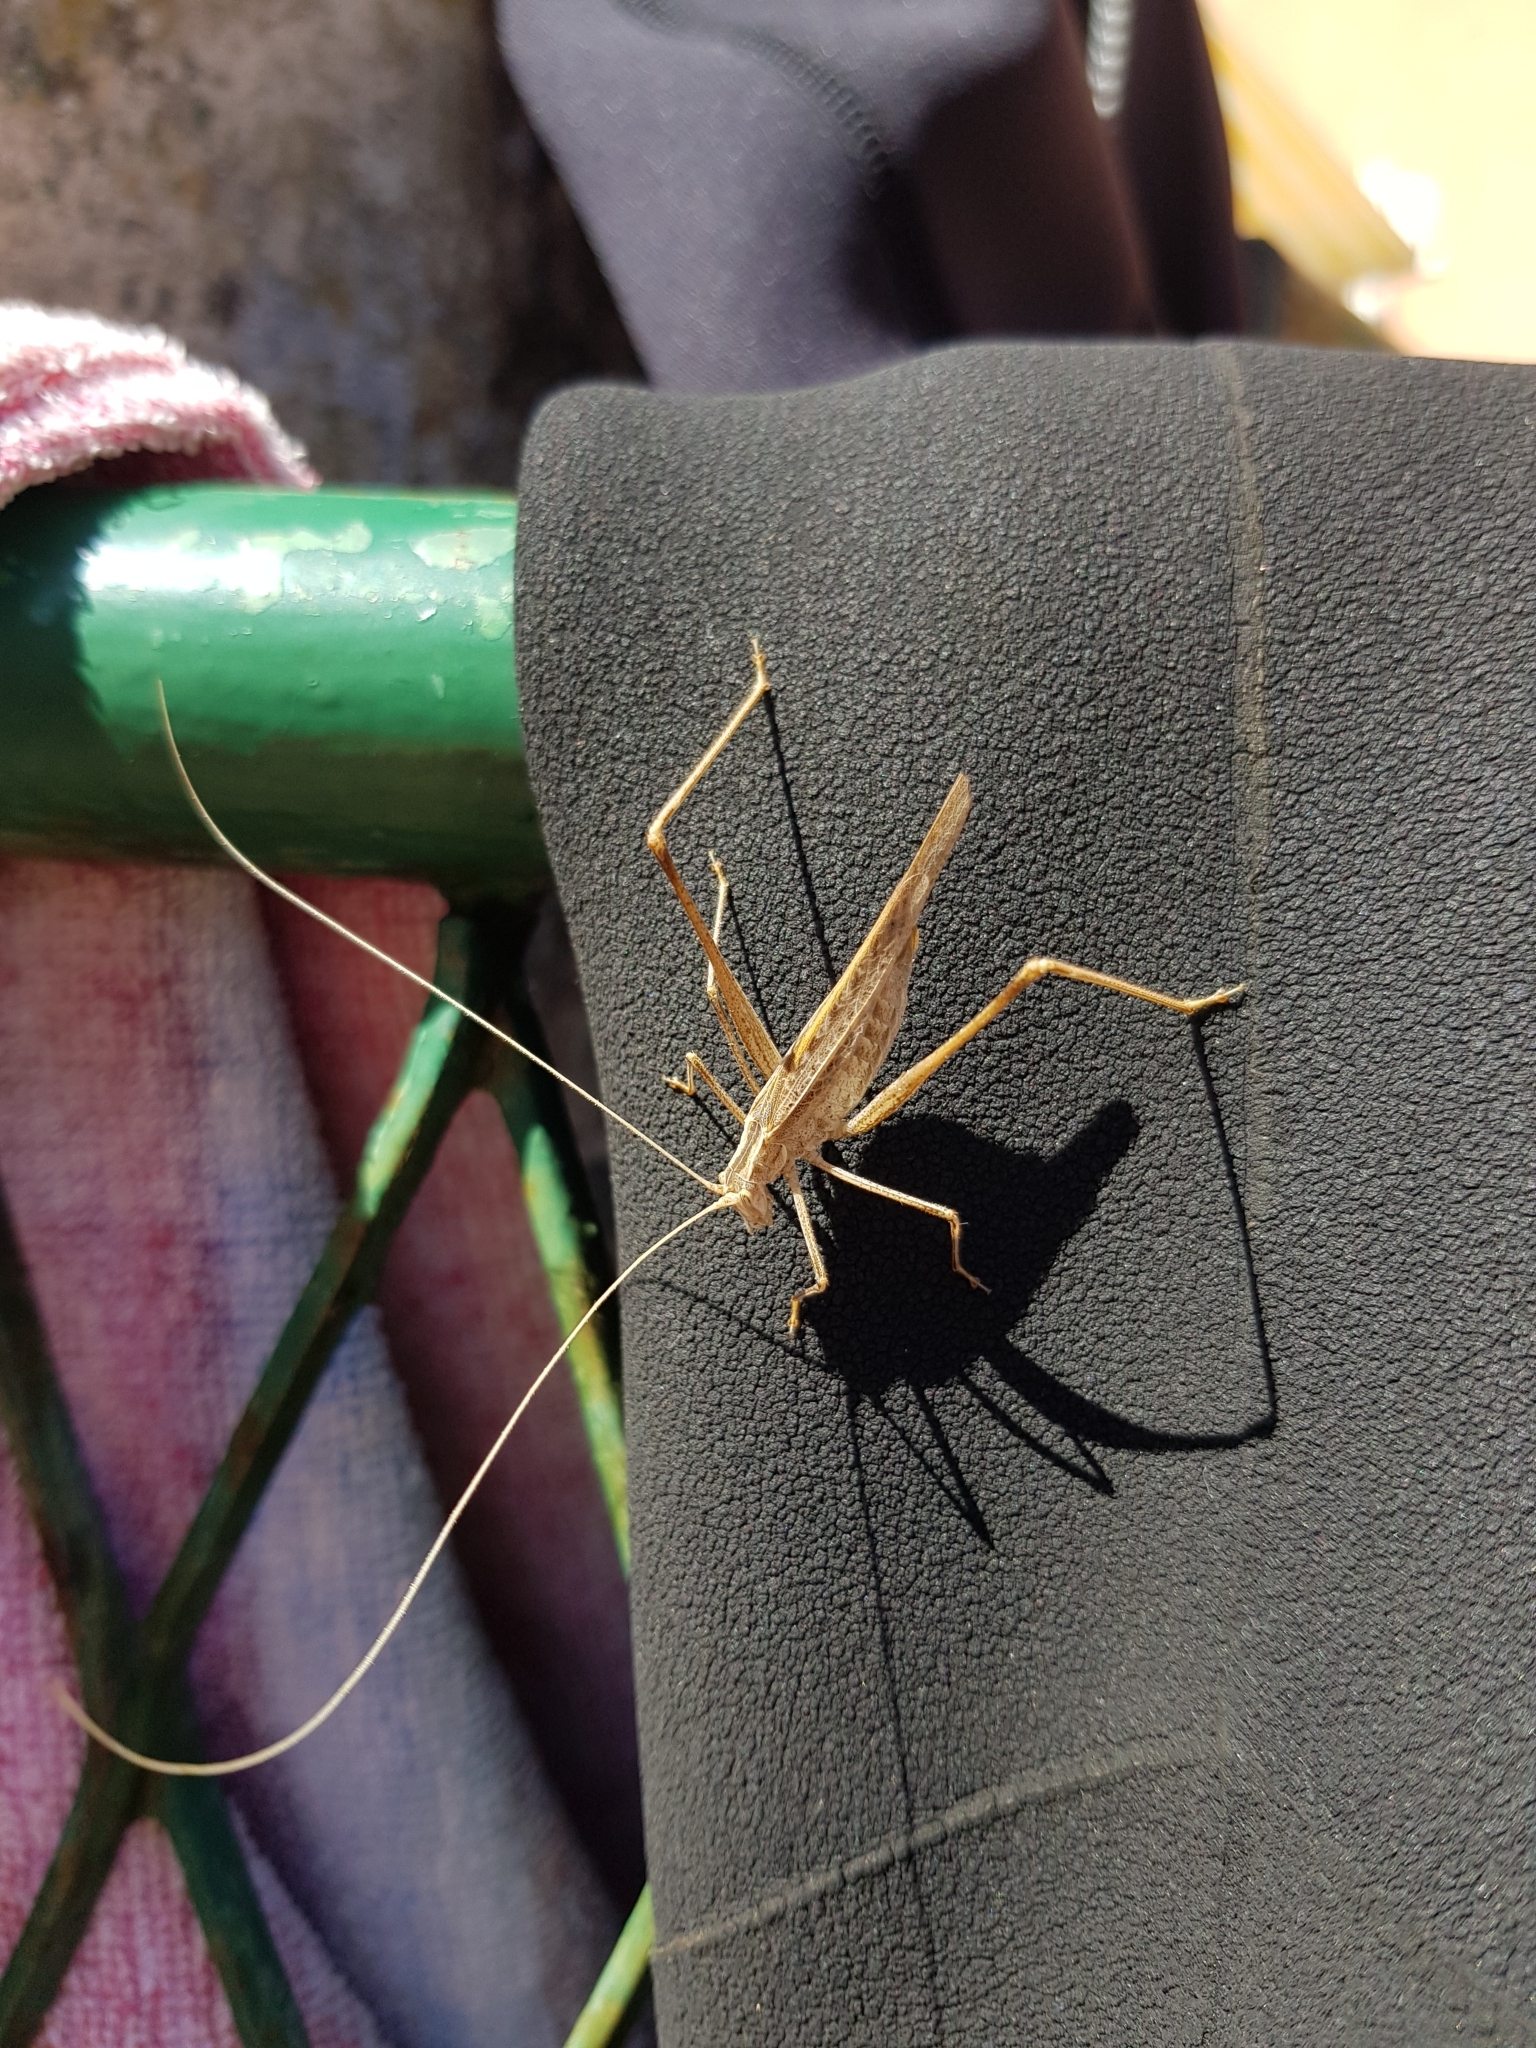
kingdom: Animalia
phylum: Arthropoda
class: Insecta
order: Orthoptera
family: Tettigoniidae
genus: Tylopsis
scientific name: Tylopsis lilifolia
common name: Lily bush-cricket
